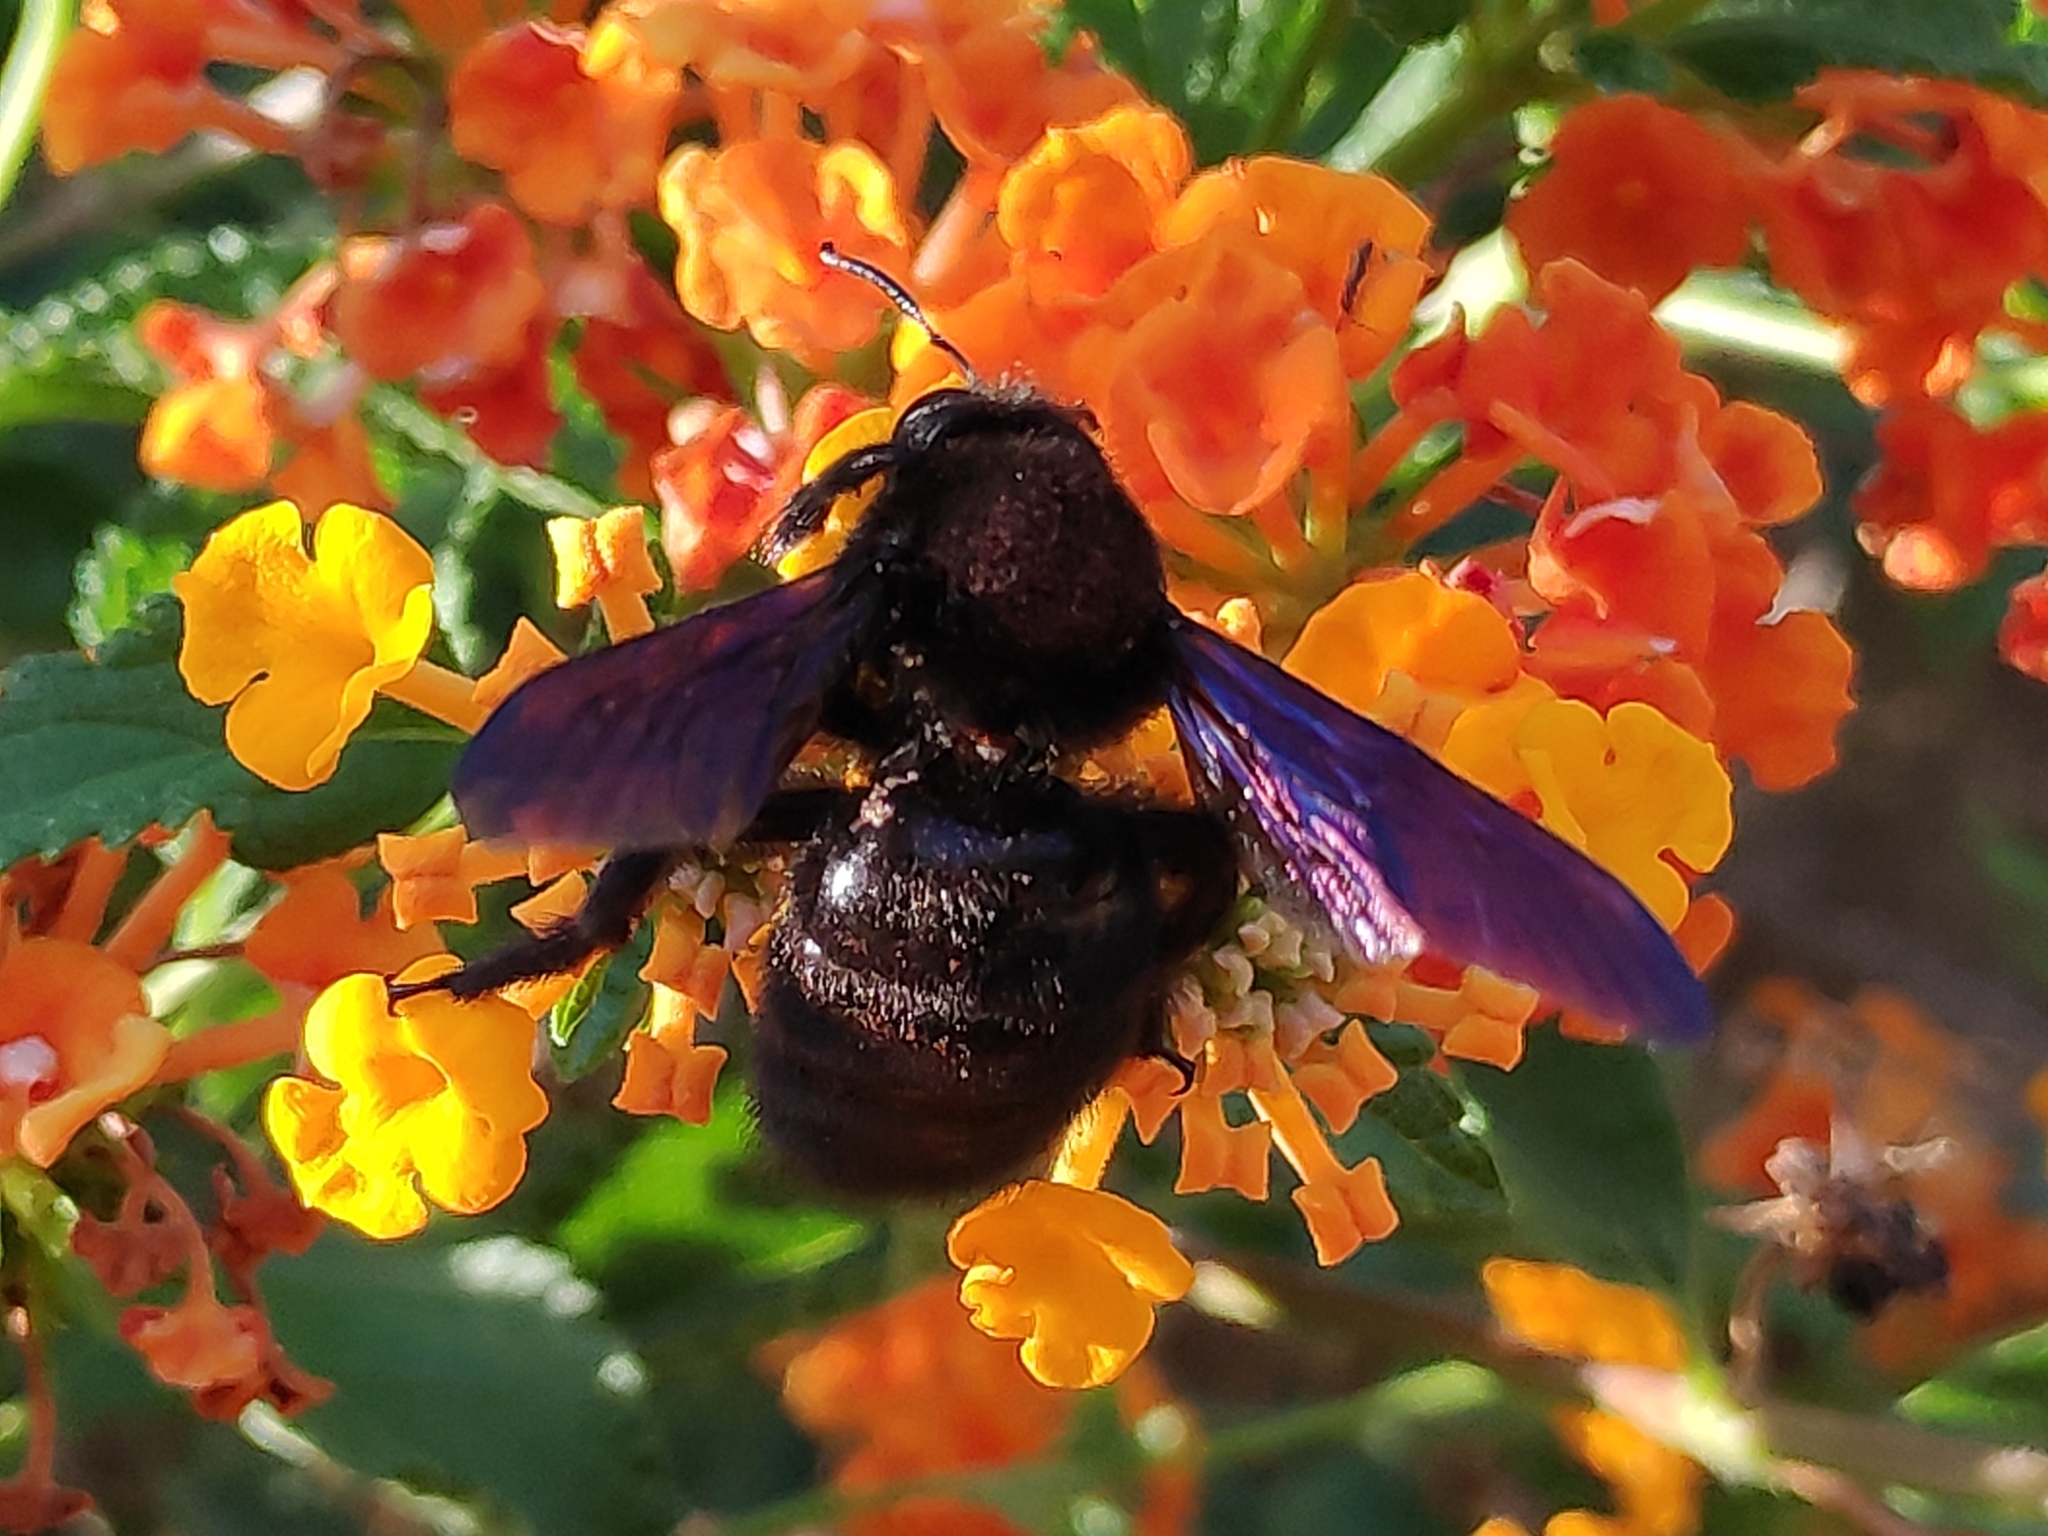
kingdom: Animalia
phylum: Arthropoda
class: Insecta
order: Hymenoptera
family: Apidae
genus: Xylocopa
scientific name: Xylocopa violacea
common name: Violet carpenter bee
